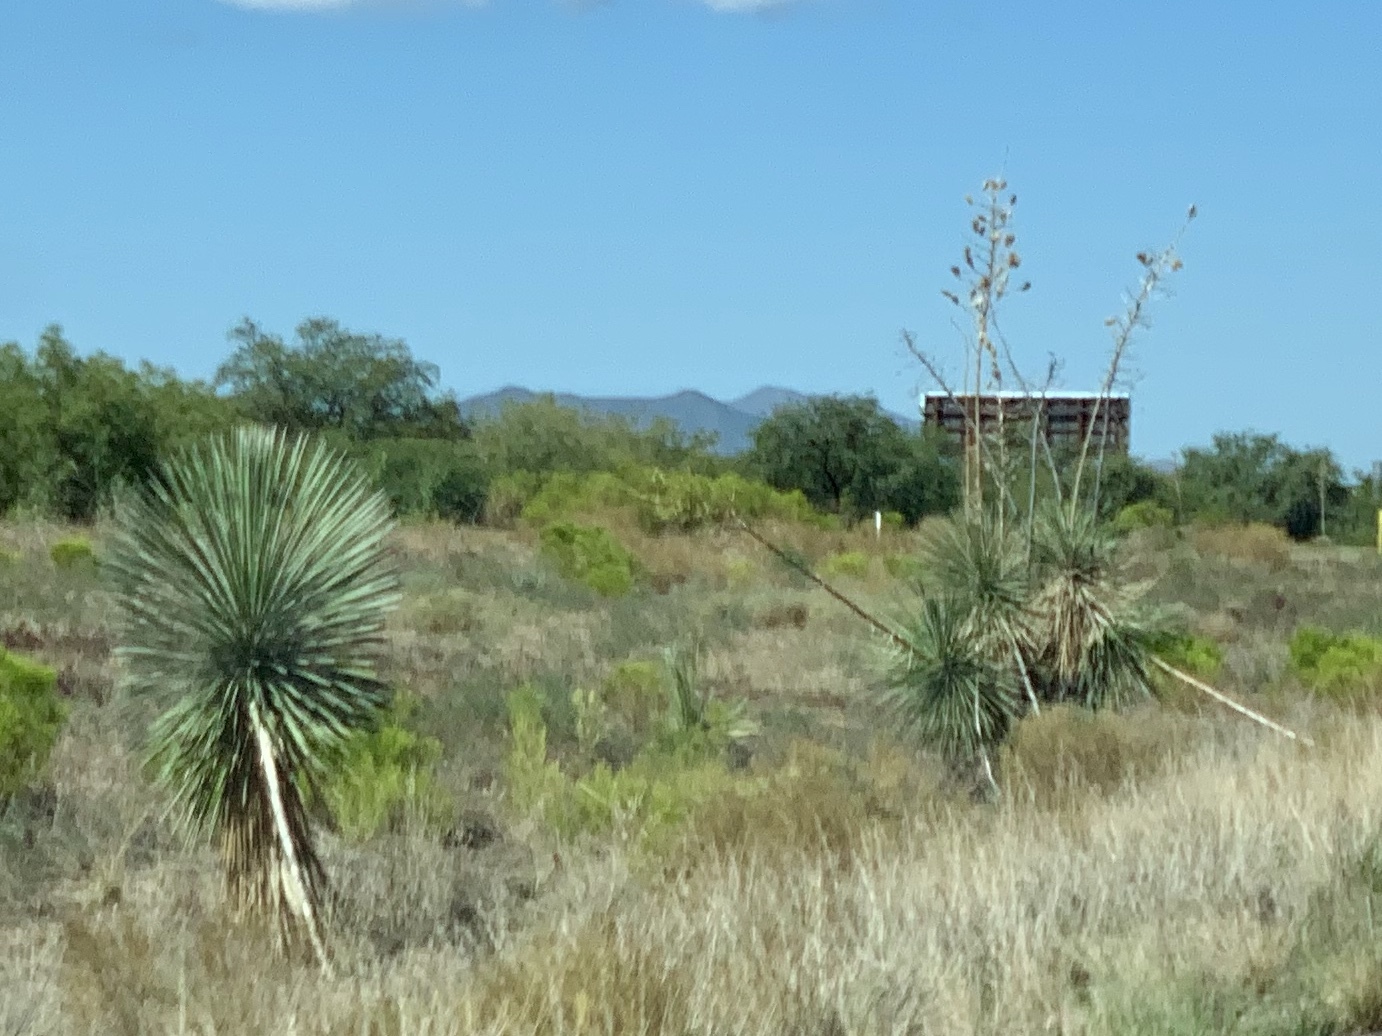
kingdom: Plantae
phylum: Tracheophyta
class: Liliopsida
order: Asparagales
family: Asparagaceae
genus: Yucca
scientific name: Yucca elata
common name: Palmella
